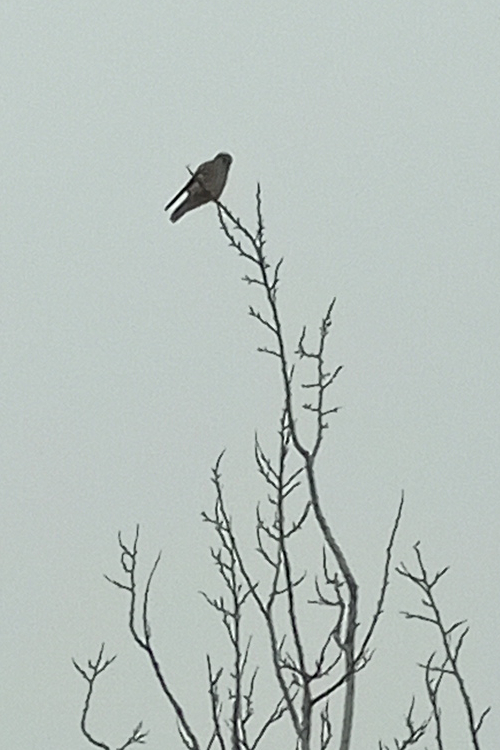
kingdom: Animalia
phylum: Chordata
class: Aves
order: Falconiformes
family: Falconidae
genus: Falco
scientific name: Falco tinnunculus
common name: Common kestrel
